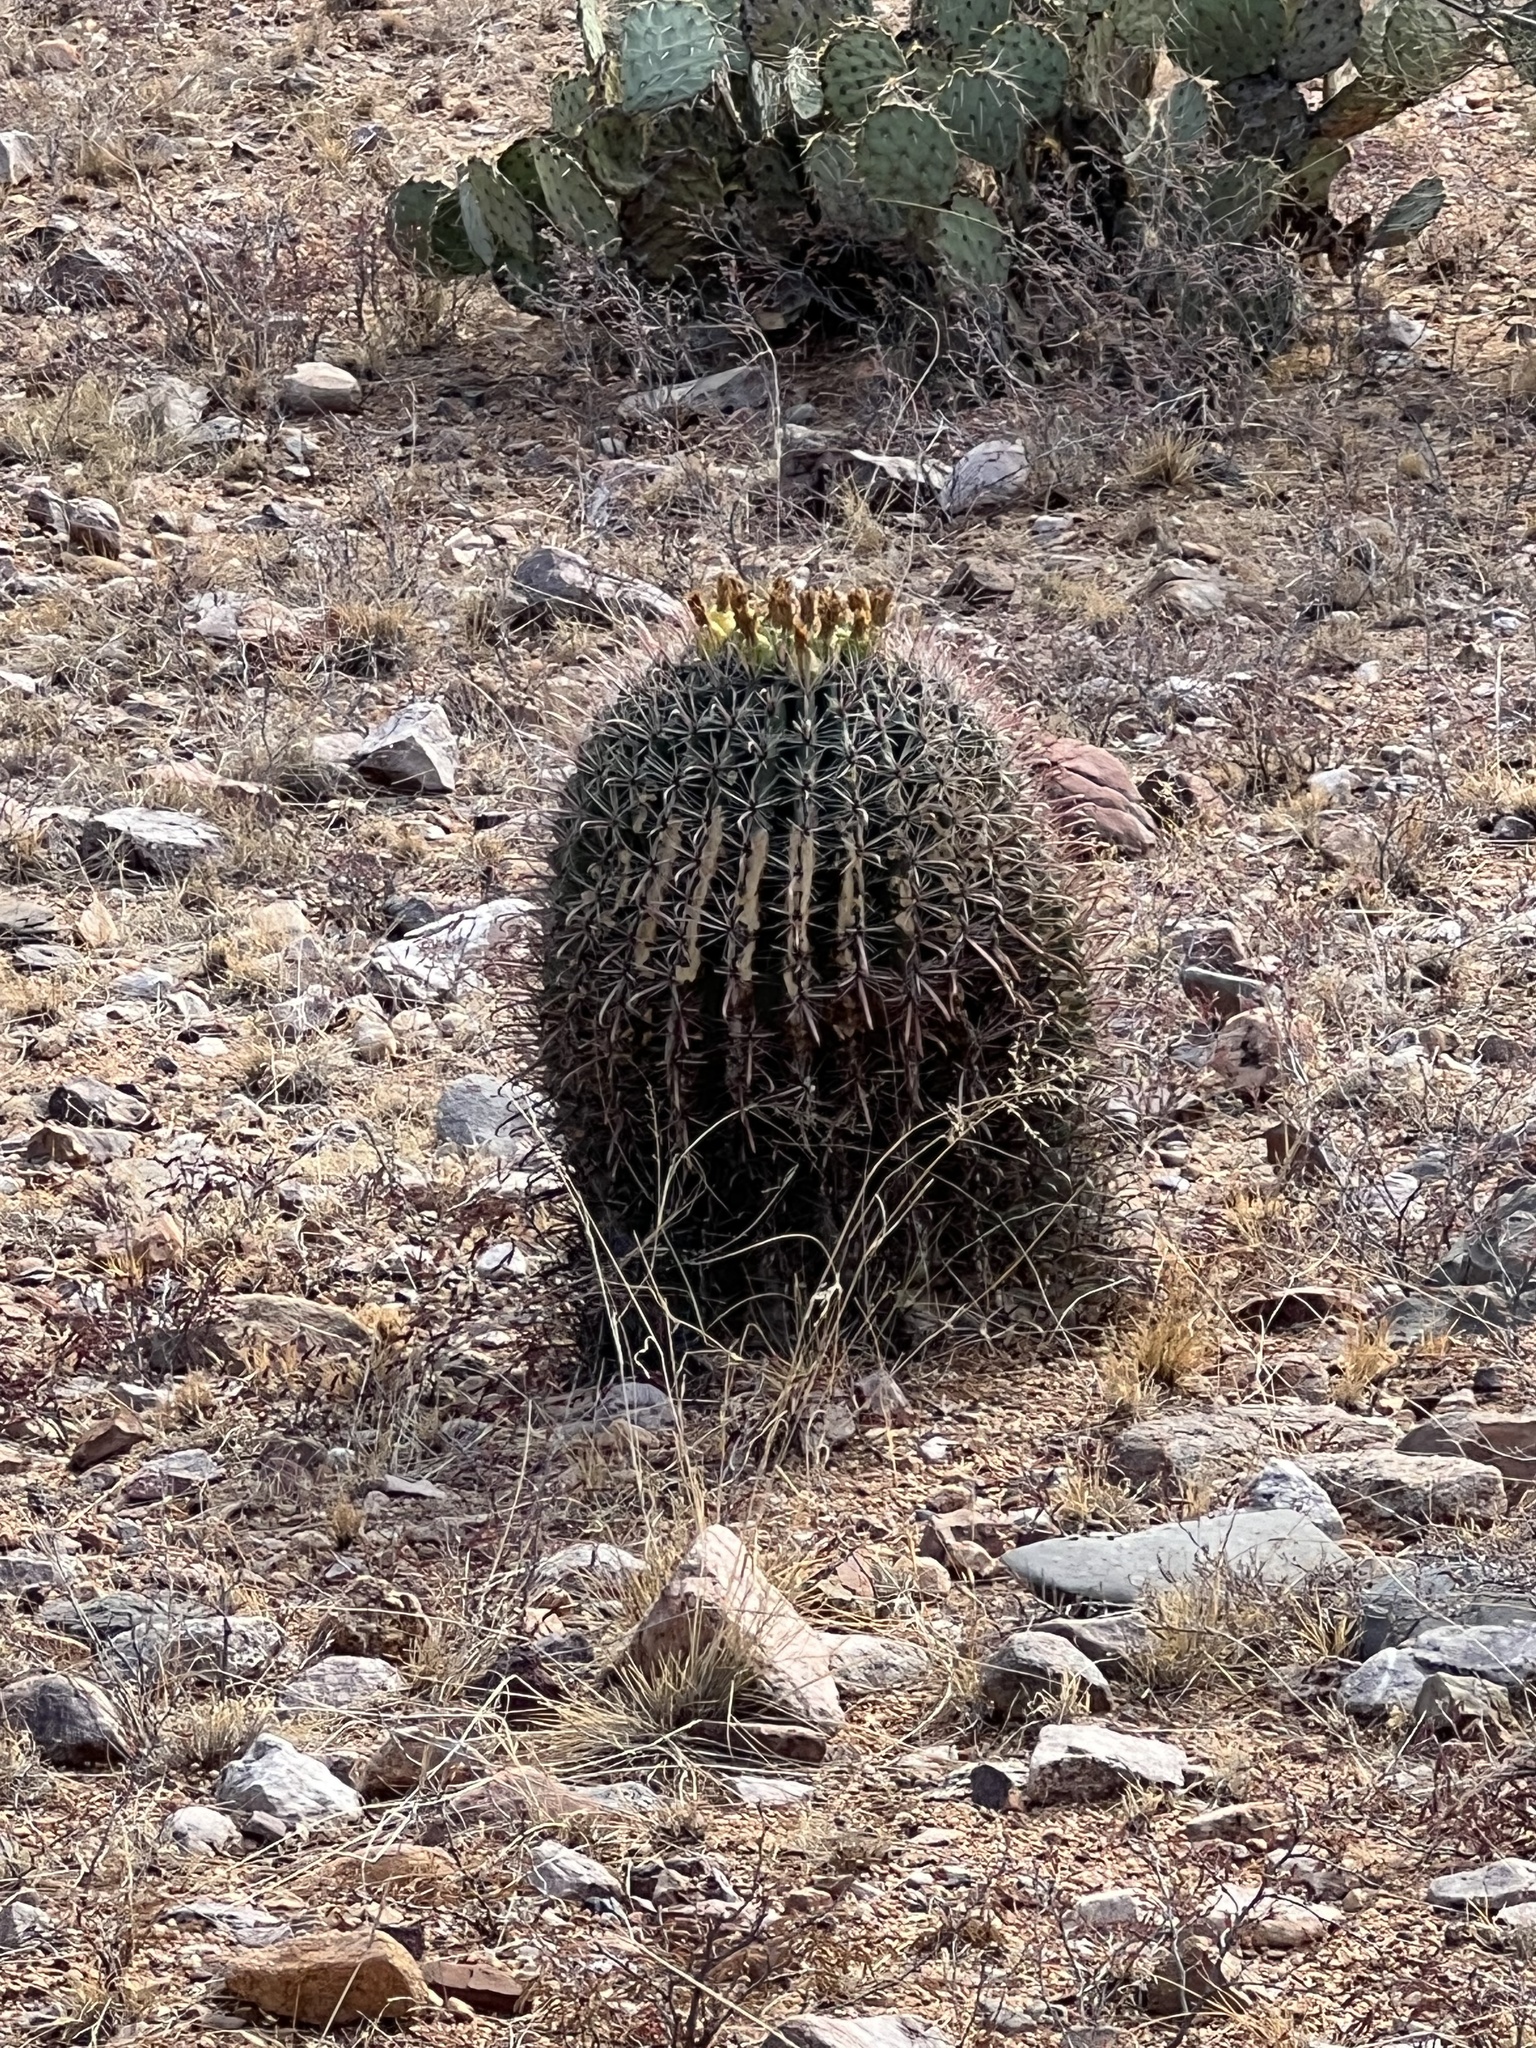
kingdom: Plantae
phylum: Tracheophyta
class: Magnoliopsida
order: Caryophyllales
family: Cactaceae
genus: Ferocactus
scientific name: Ferocactus wislizeni
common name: Candy barrel cactus
